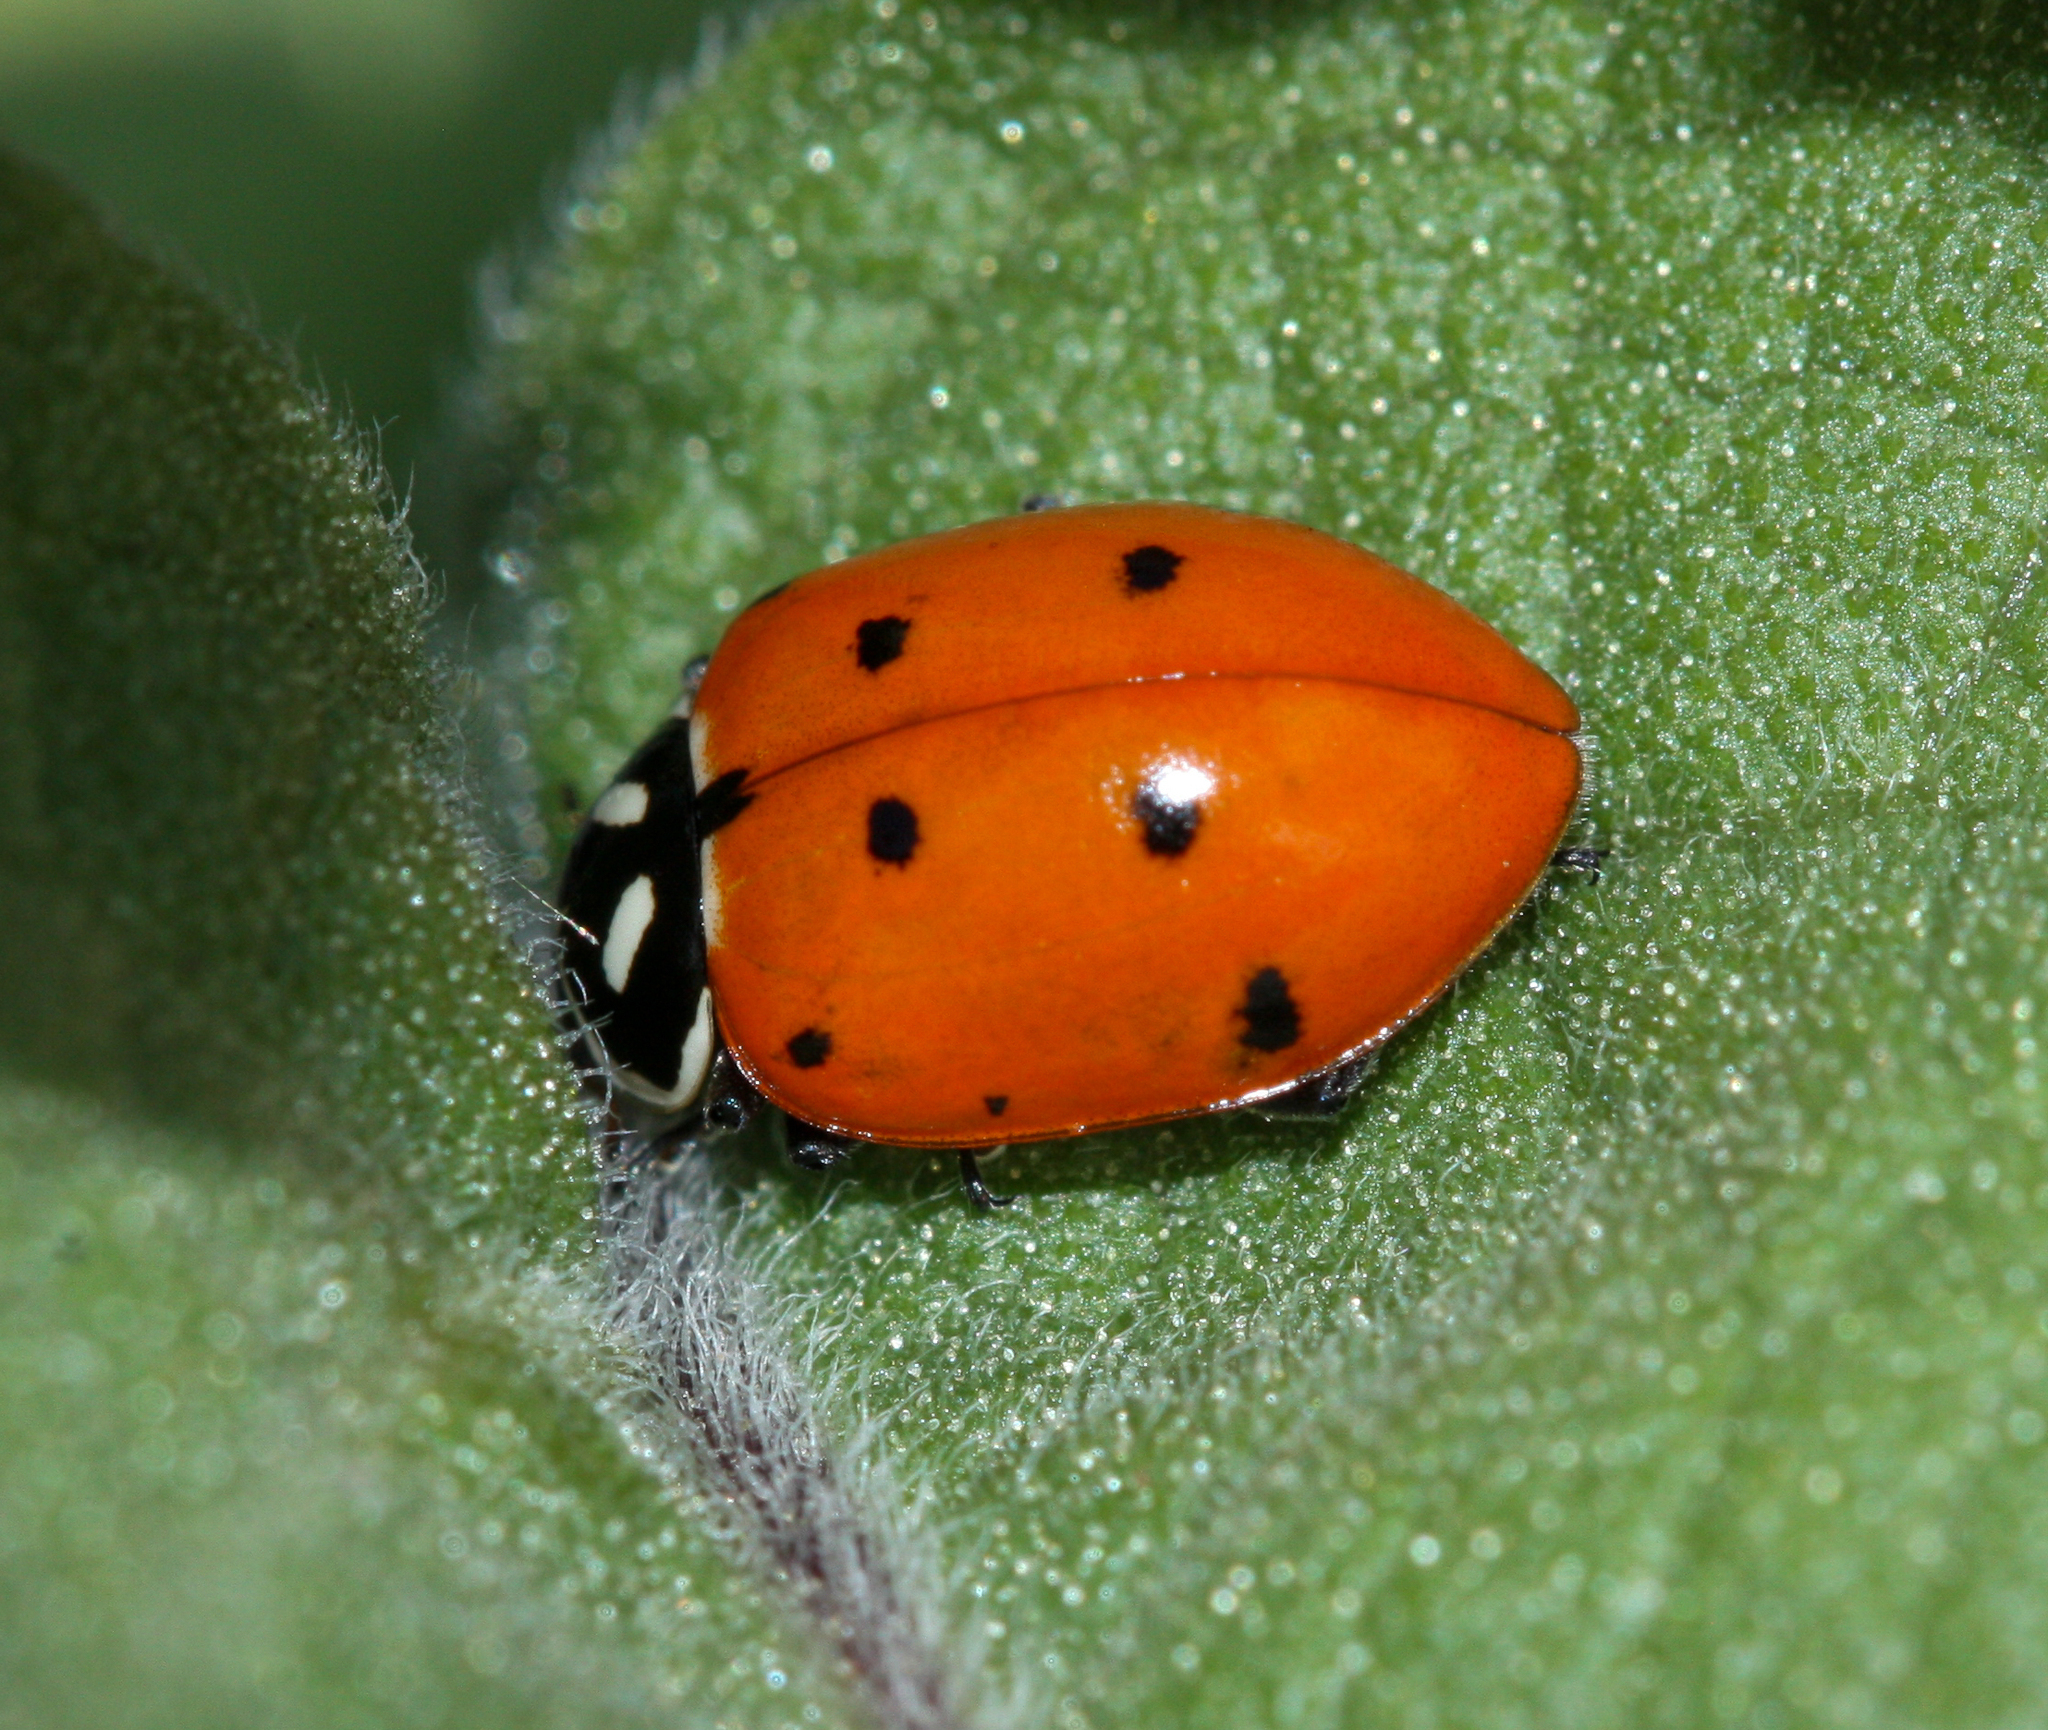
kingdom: Animalia
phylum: Arthropoda
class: Insecta
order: Coleoptera
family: Coccinellidae
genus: Hippodamia
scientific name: Hippodamia convergens
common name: Convergent lady beetle
